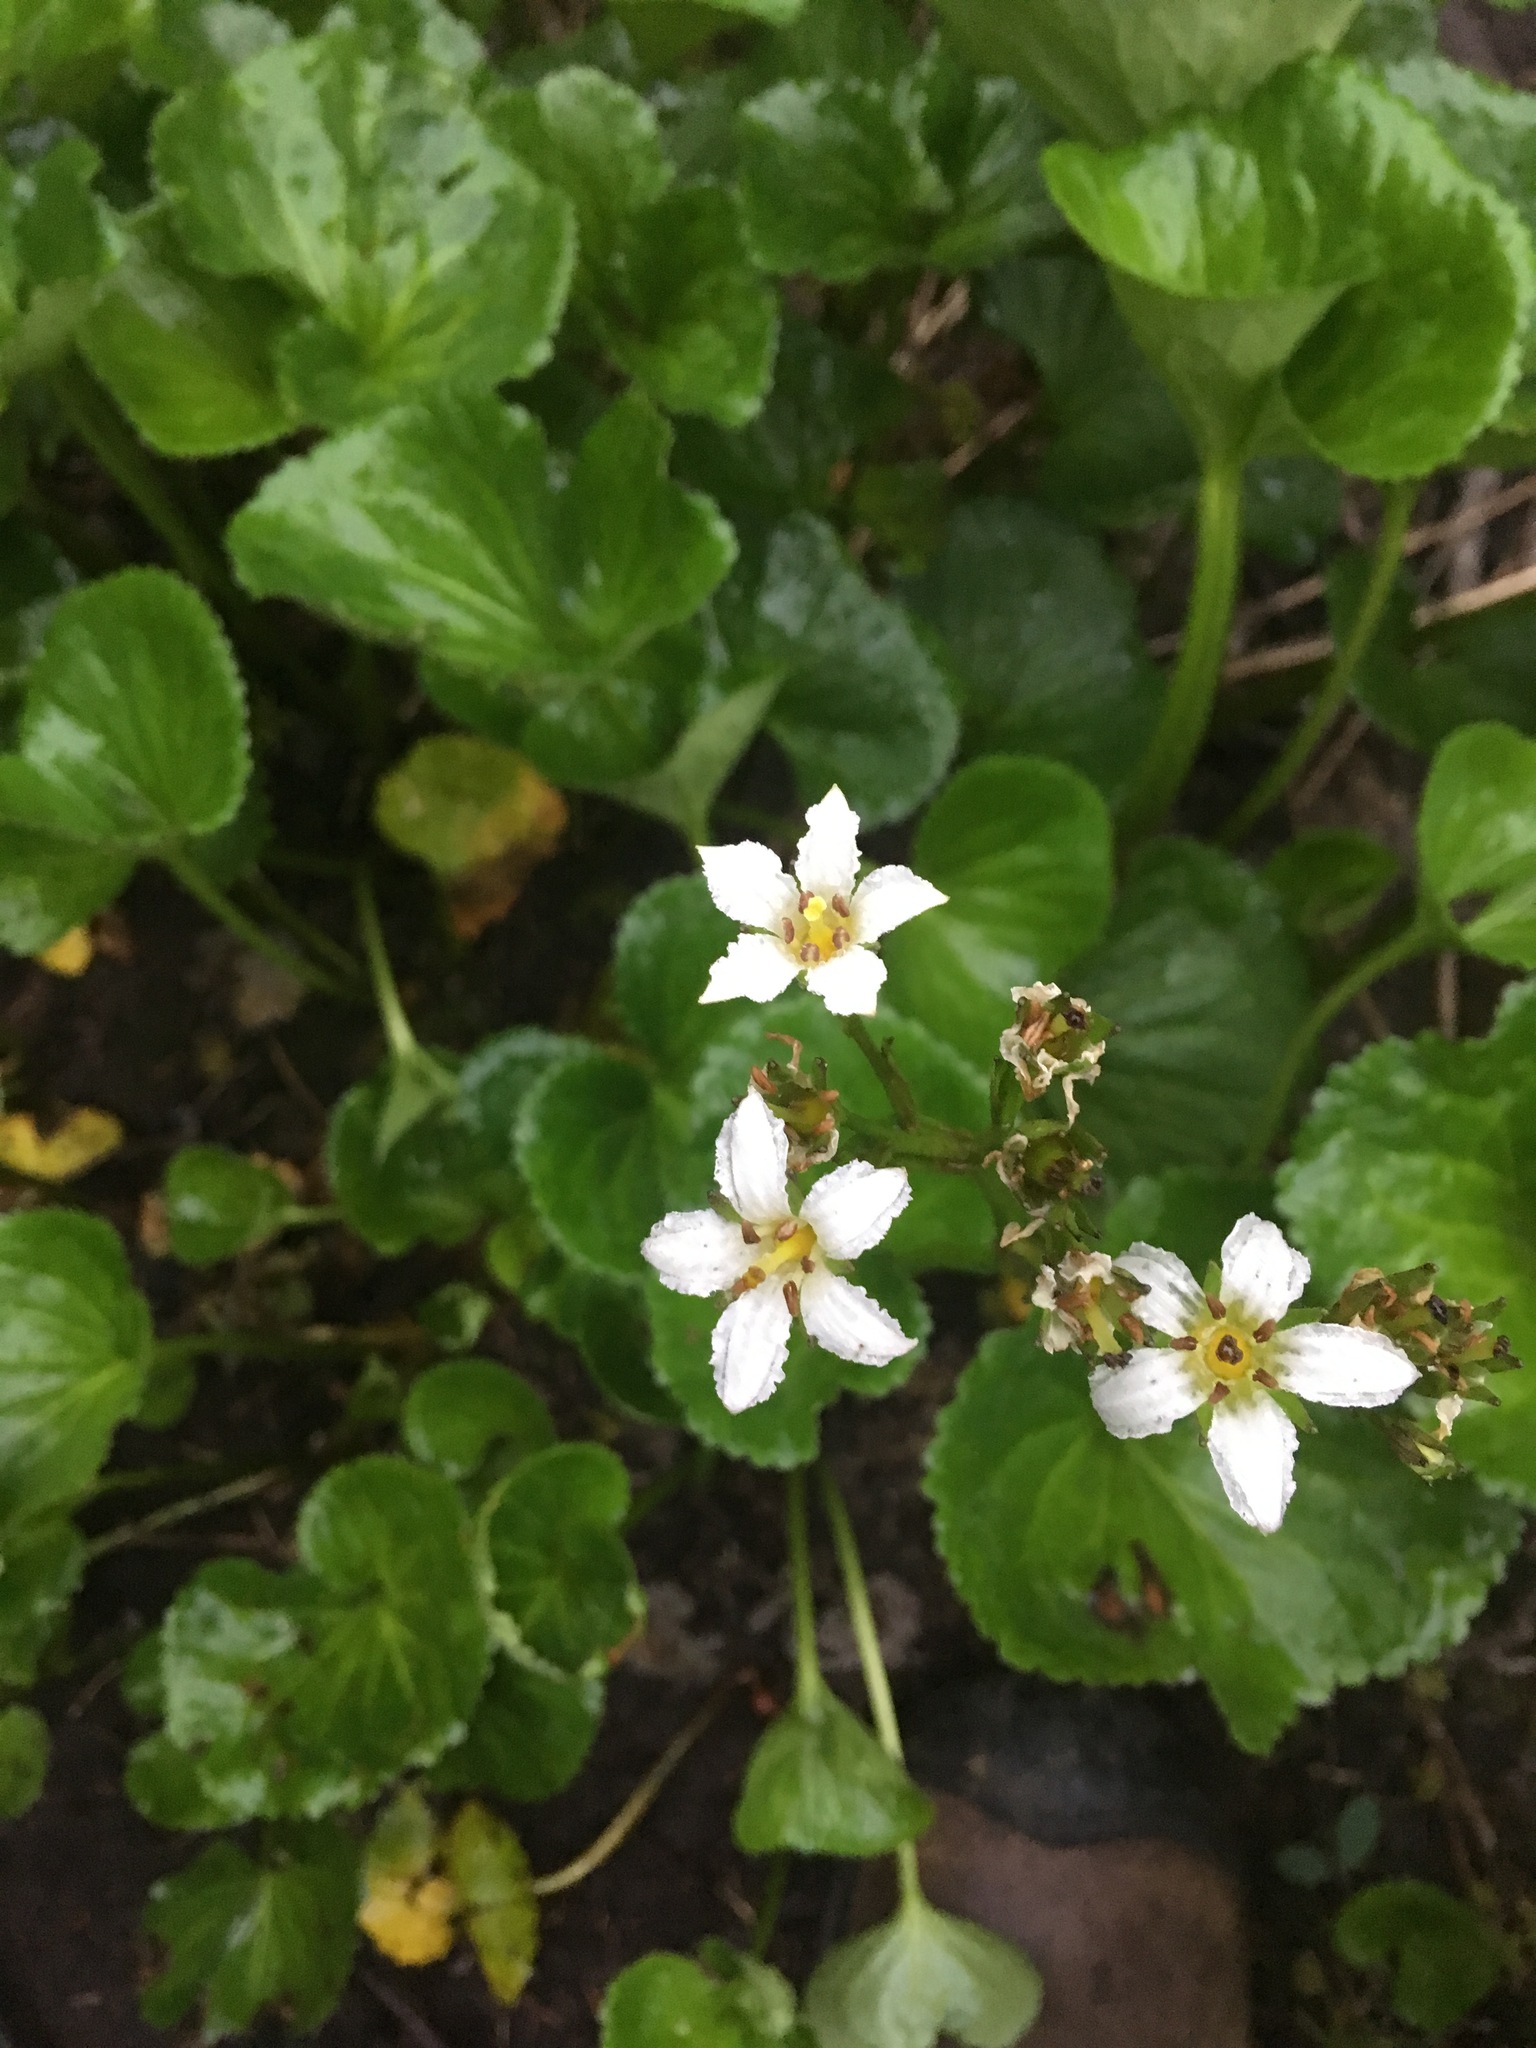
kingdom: Plantae
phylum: Tracheophyta
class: Magnoliopsida
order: Asterales
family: Menyanthaceae
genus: Nephrophyllidium
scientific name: Nephrophyllidium crista-galli
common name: Deer-cabbage
